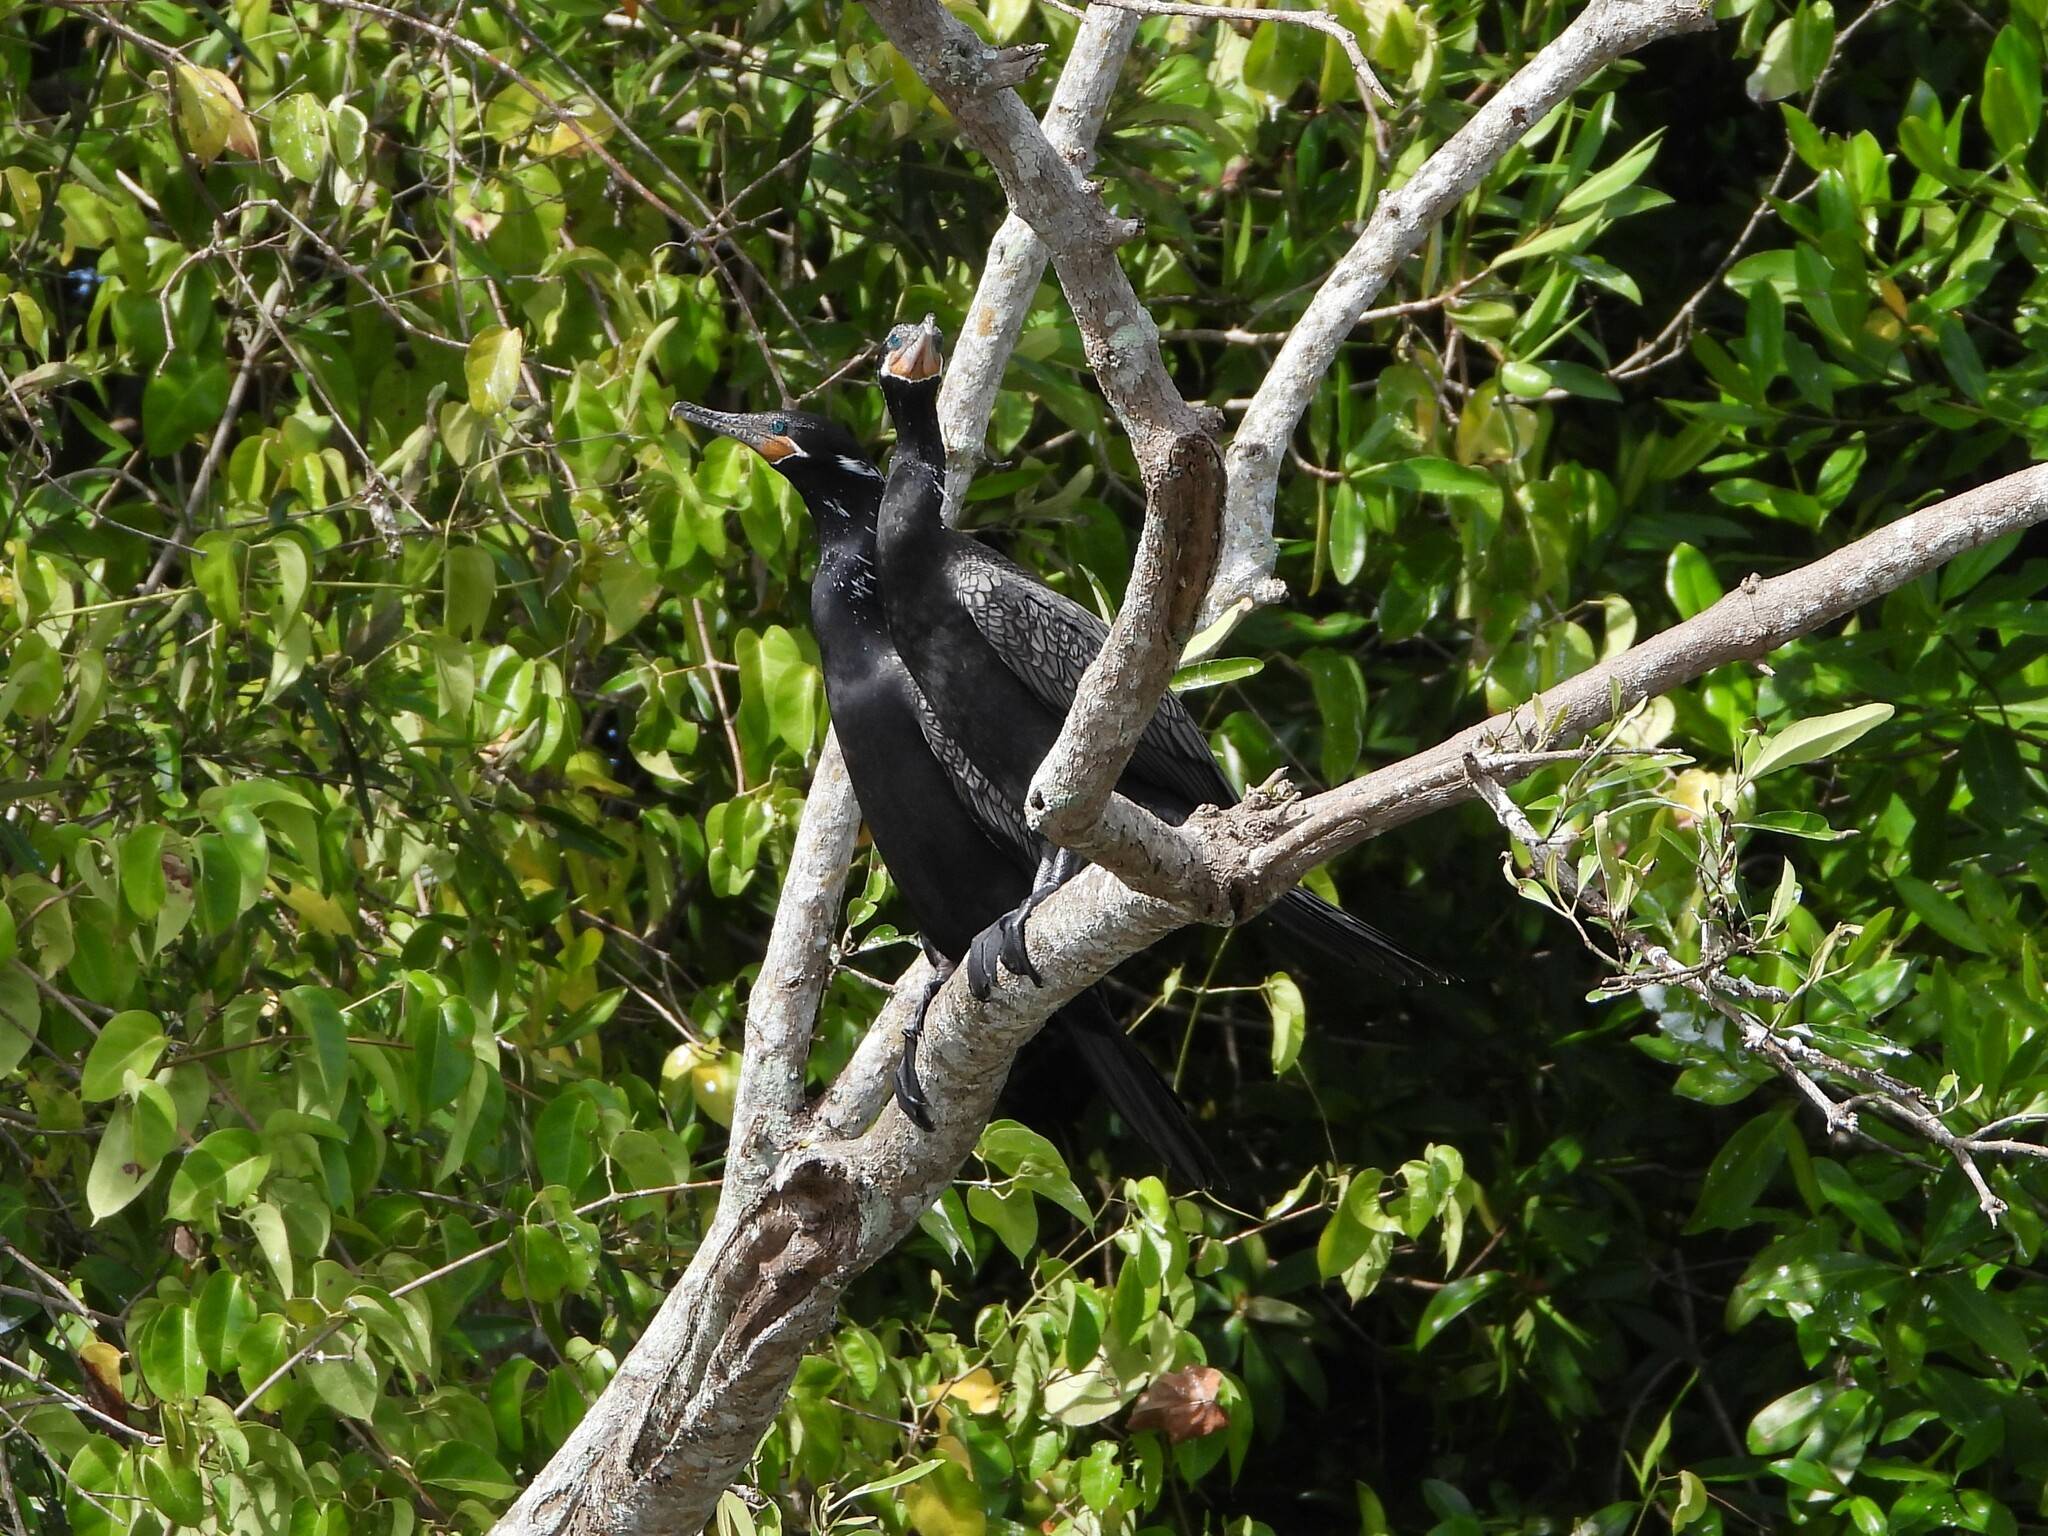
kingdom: Animalia
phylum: Chordata
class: Aves
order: Suliformes
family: Phalacrocoracidae
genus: Phalacrocorax
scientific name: Phalacrocorax brasilianus
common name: Neotropic cormorant
